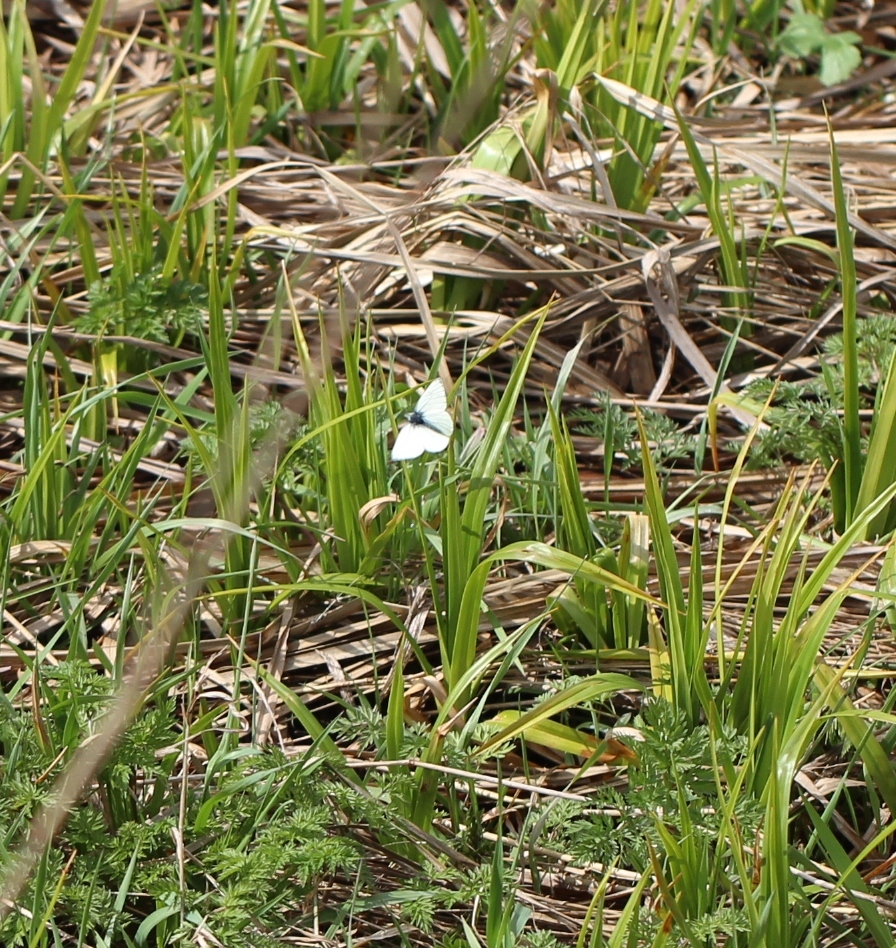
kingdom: Animalia
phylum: Arthropoda
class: Insecta
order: Lepidoptera
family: Pieridae
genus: Pieris
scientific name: Pieris napi
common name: Green-veined white
